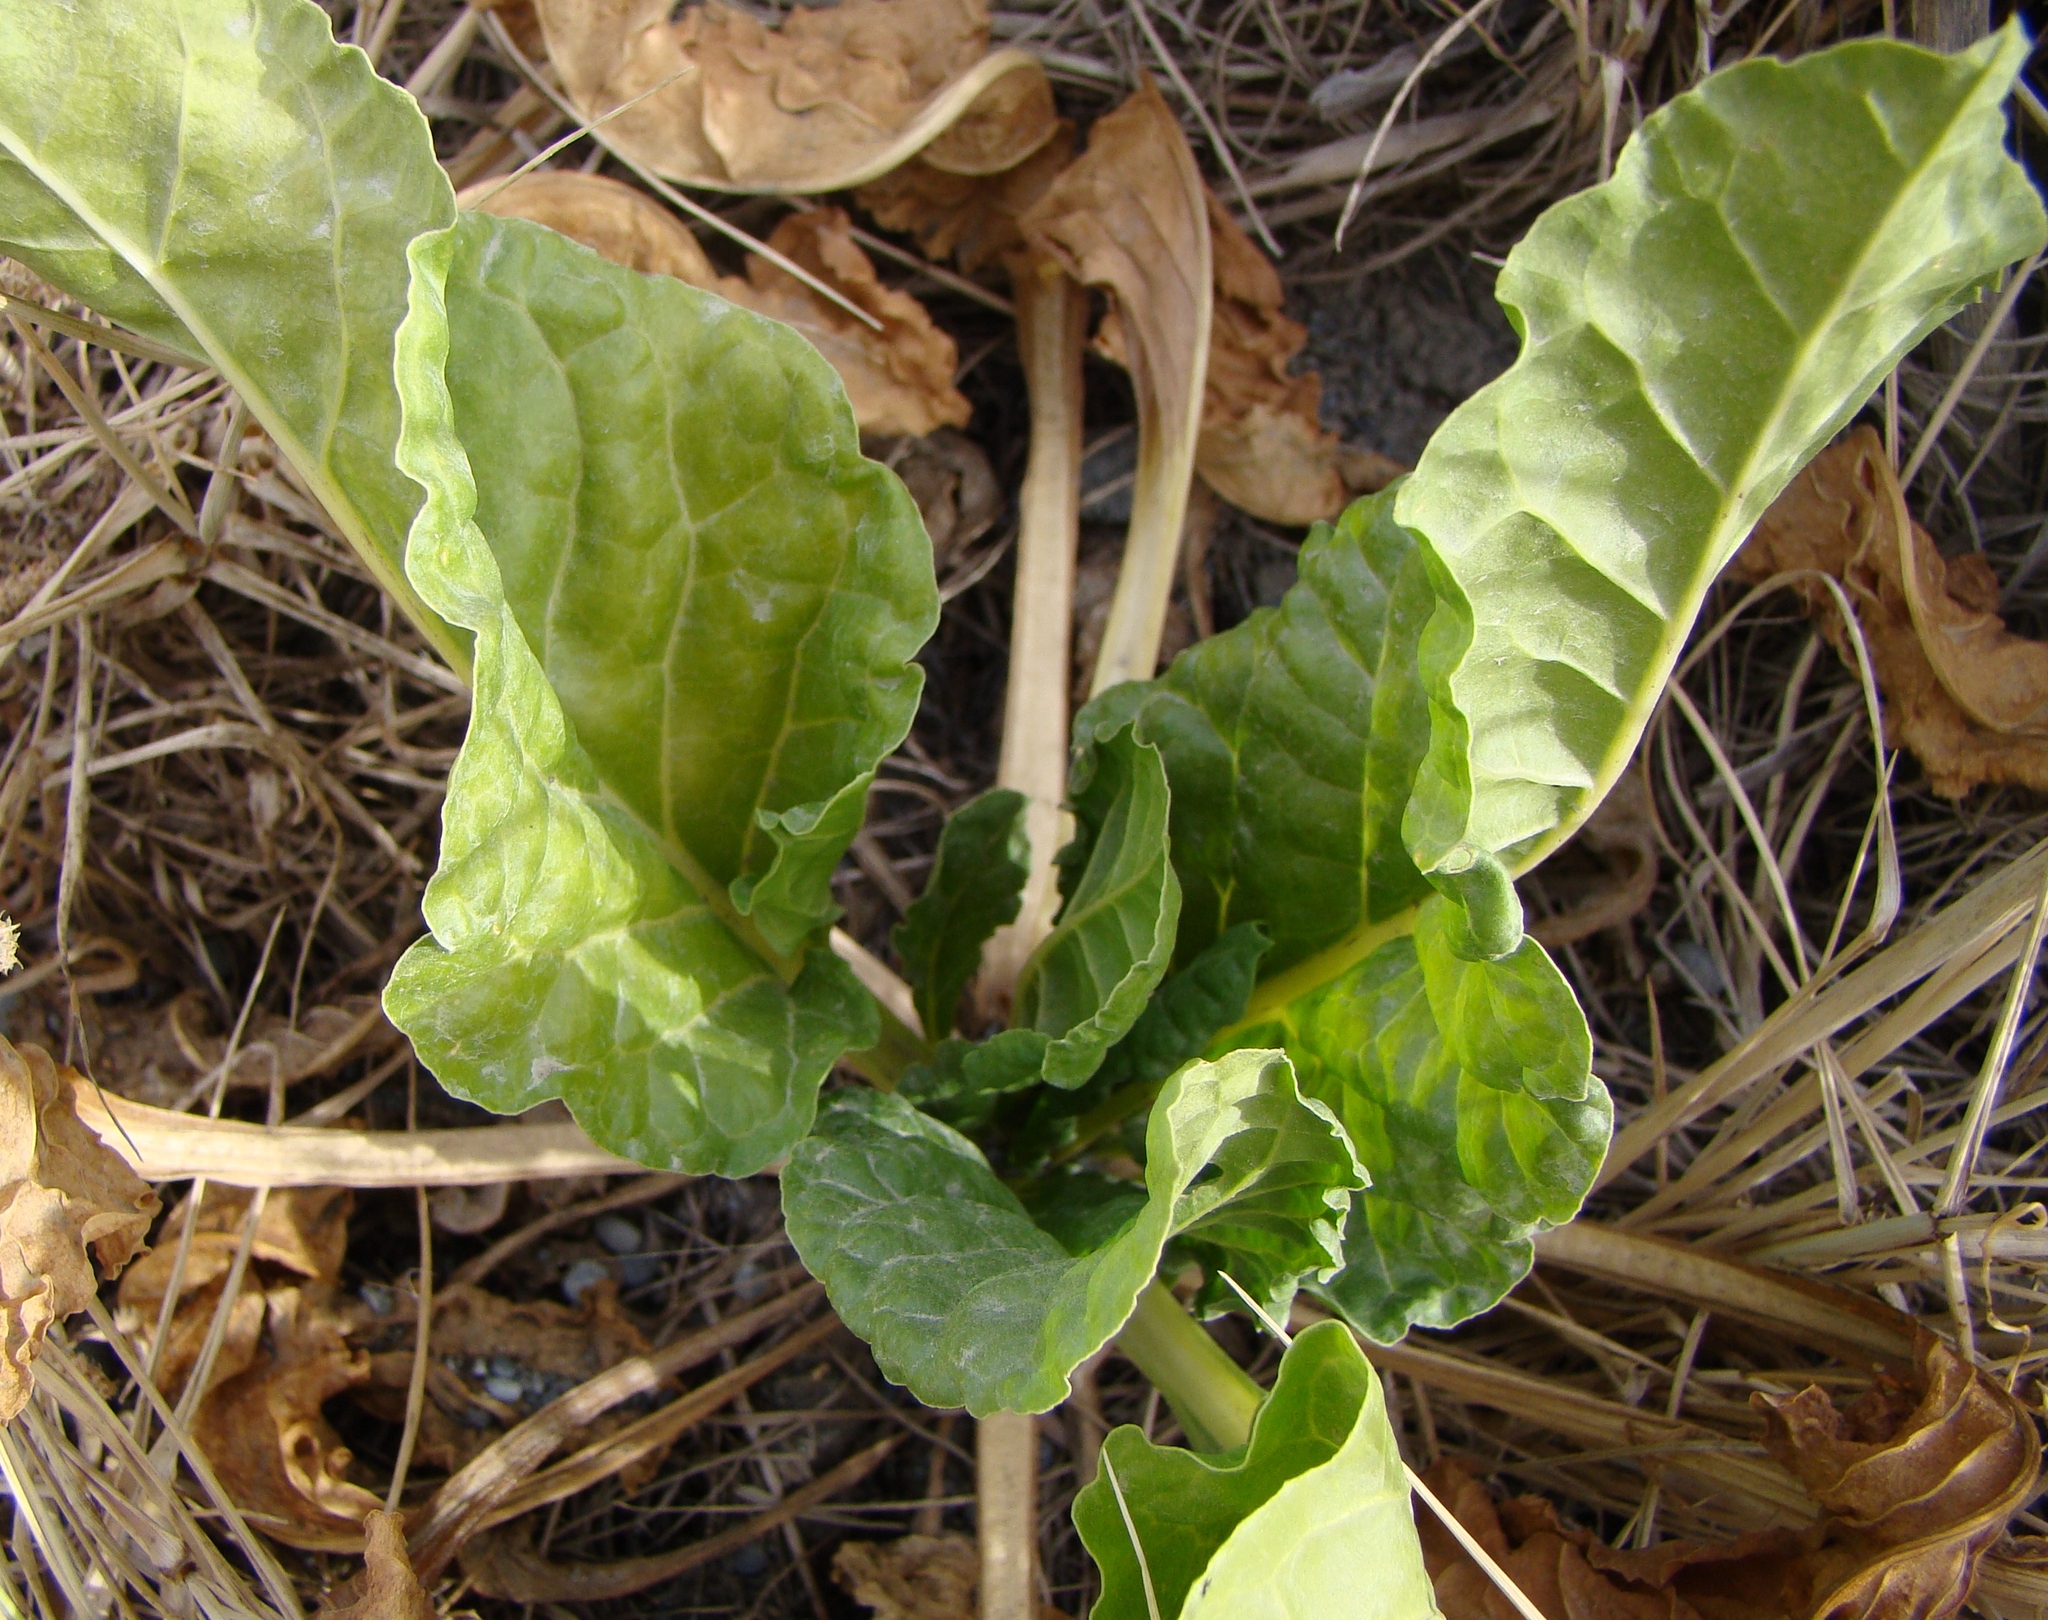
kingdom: Plantae
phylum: Tracheophyta
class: Magnoliopsida
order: Caryophyllales
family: Amaranthaceae
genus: Beta
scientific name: Beta vulgaris
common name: Beet
